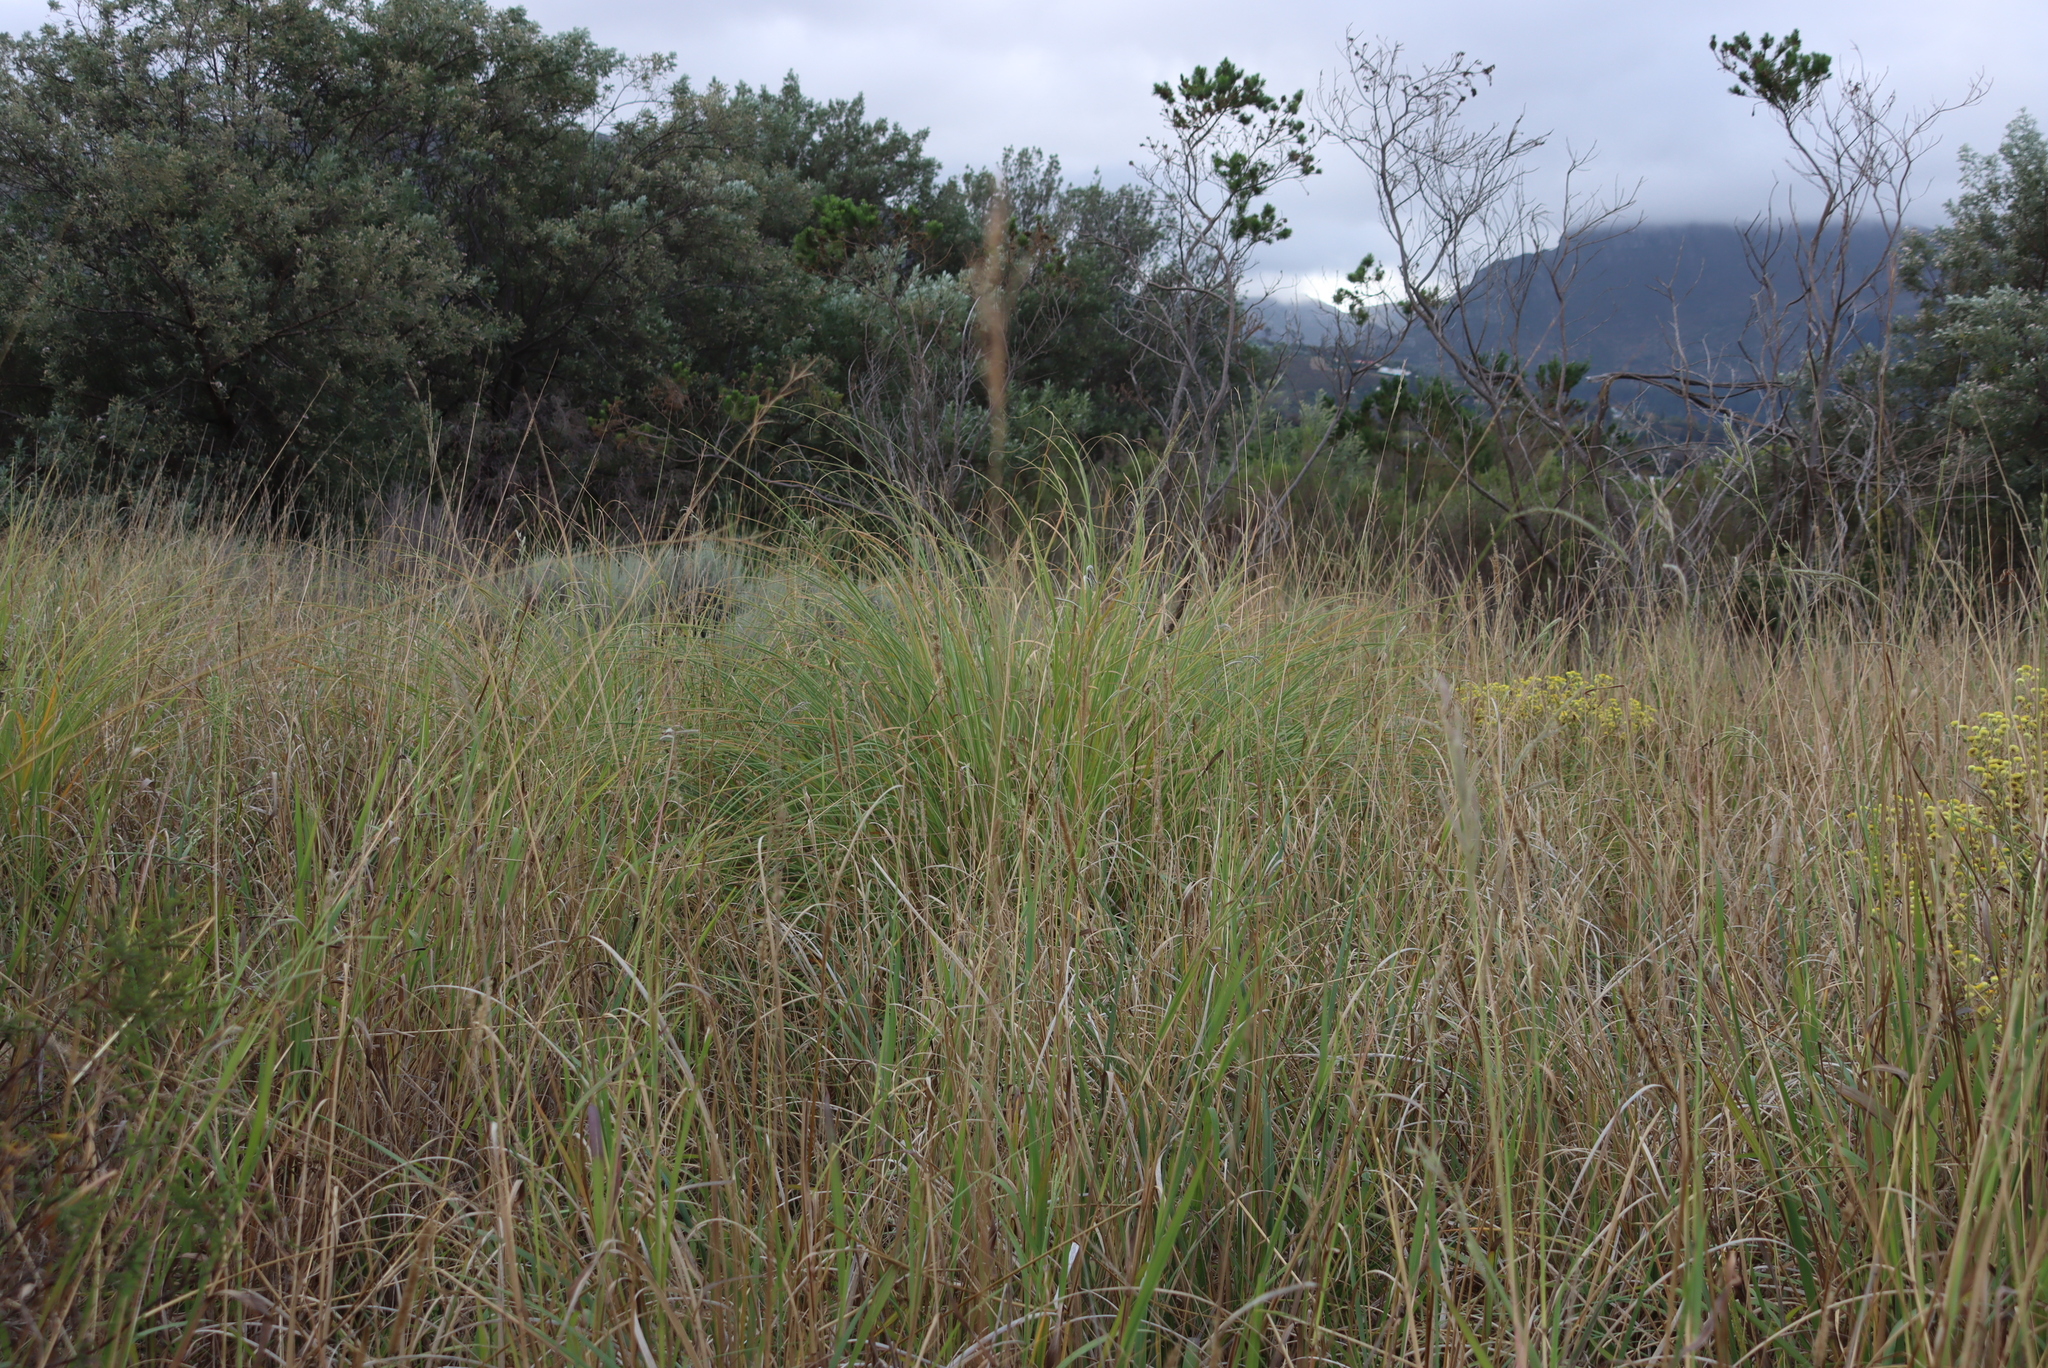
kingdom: Plantae
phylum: Tracheophyta
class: Liliopsida
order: Poales
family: Poaceae
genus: Cortaderia
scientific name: Cortaderia selloana
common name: Uruguayan pampas grass
